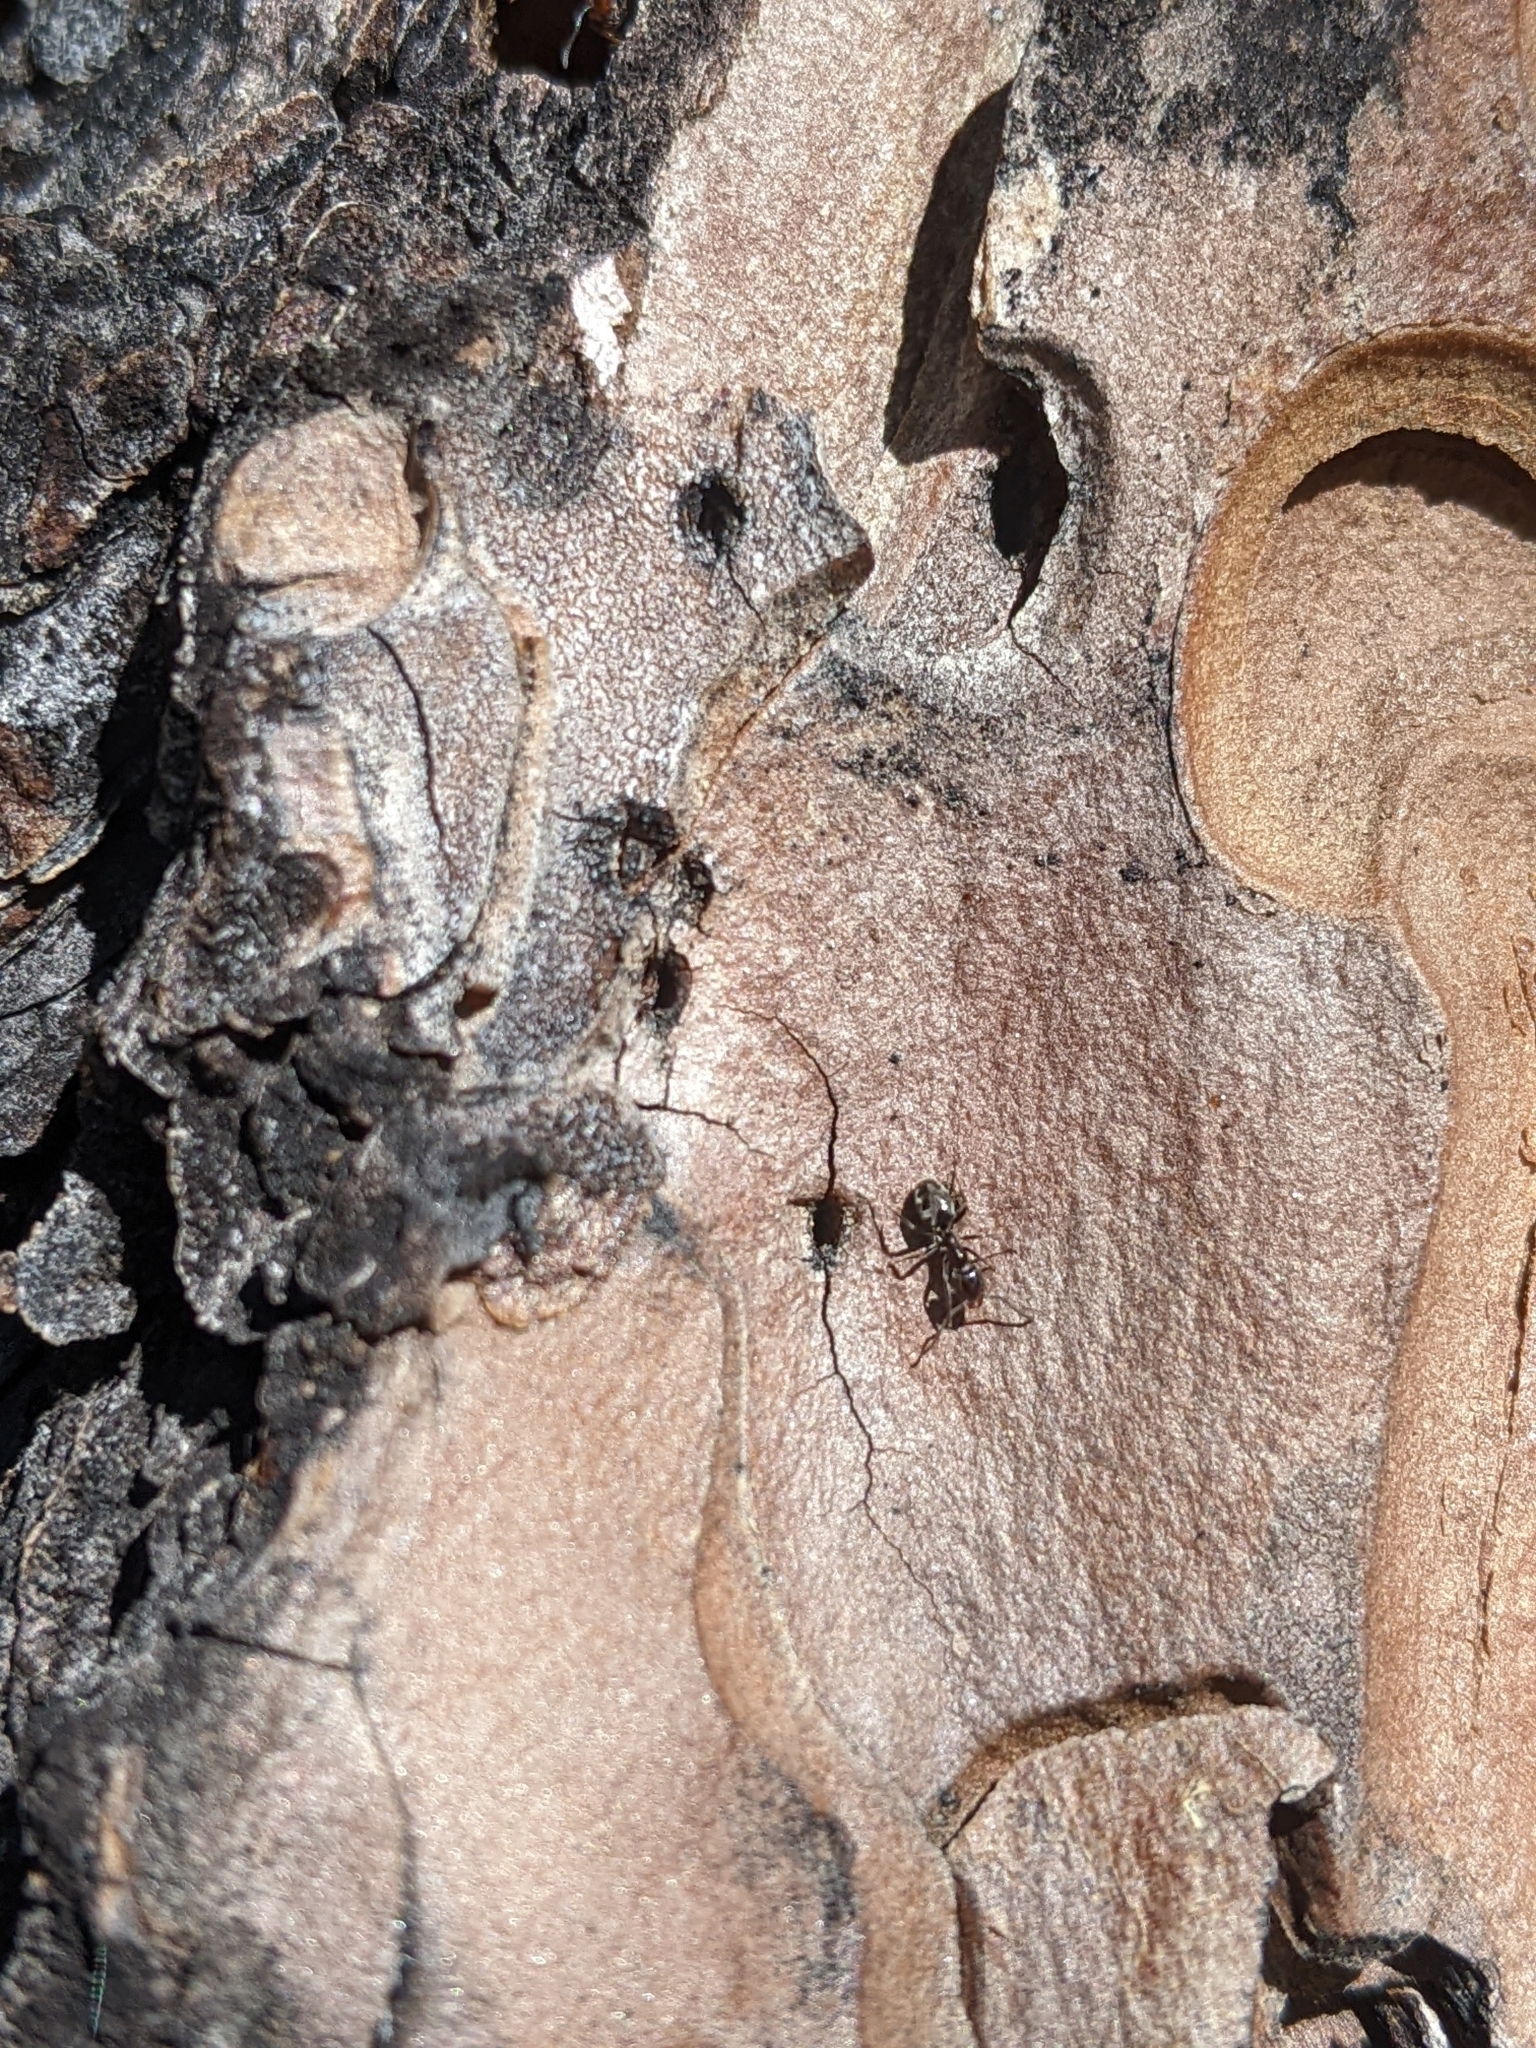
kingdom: Animalia
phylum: Arthropoda
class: Insecta
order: Hymenoptera
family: Formicidae
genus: Liometopum
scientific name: Liometopum luctuosum
